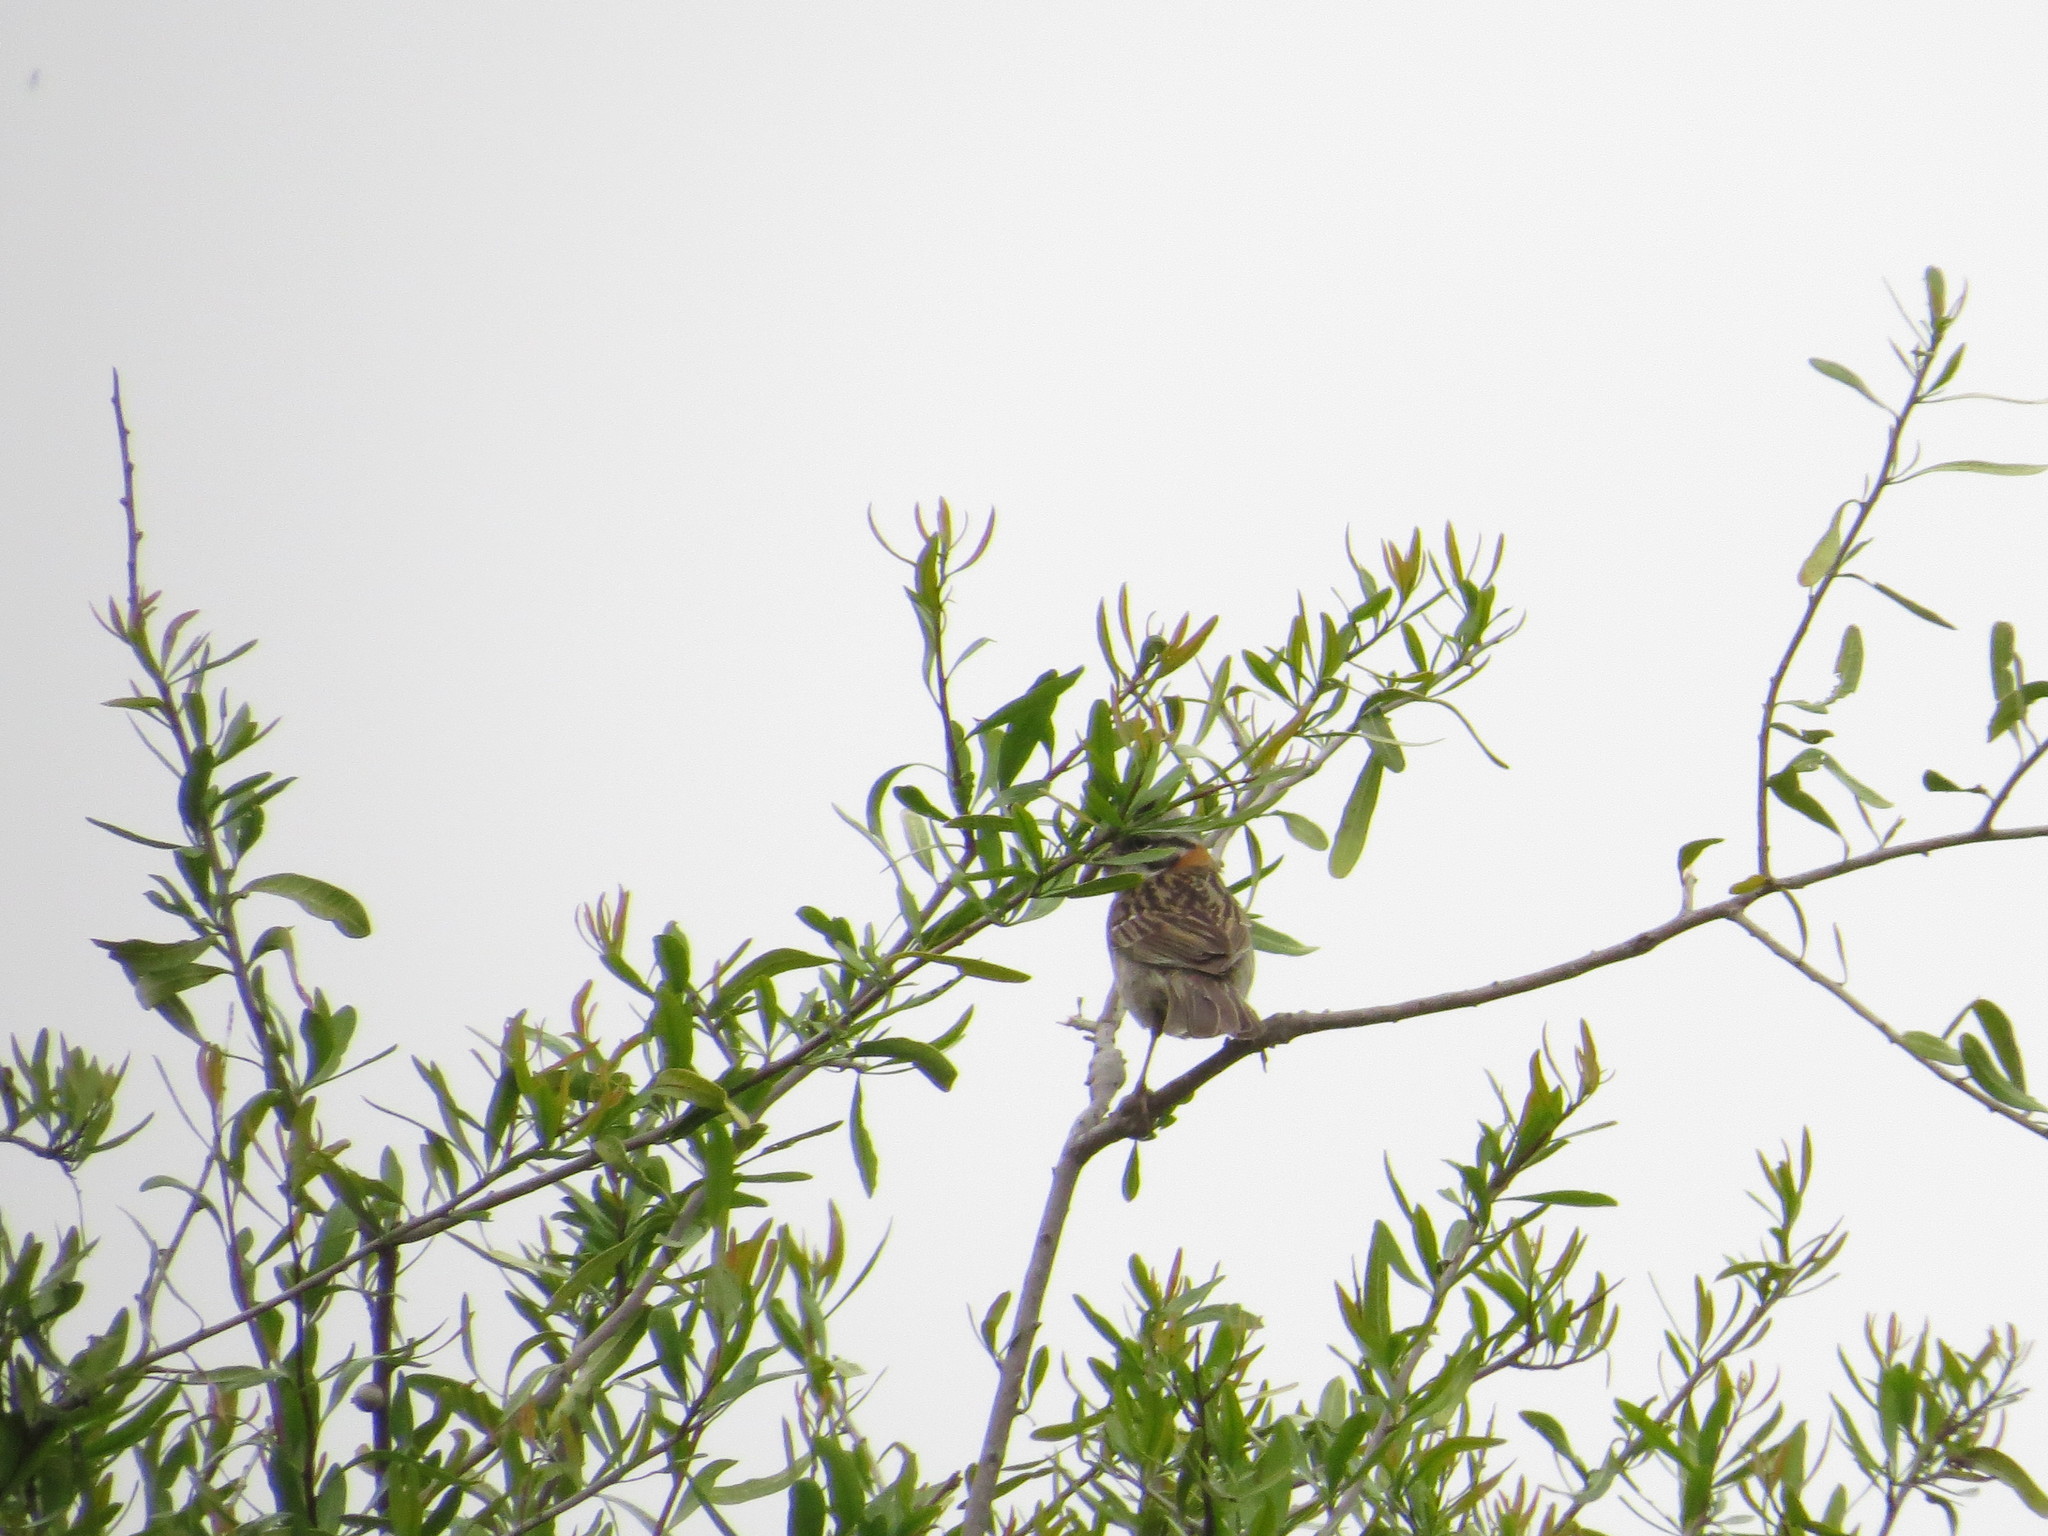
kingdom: Animalia
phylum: Chordata
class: Aves
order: Passeriformes
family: Passerellidae
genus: Zonotrichia
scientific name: Zonotrichia capensis
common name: Rufous-collared sparrow
